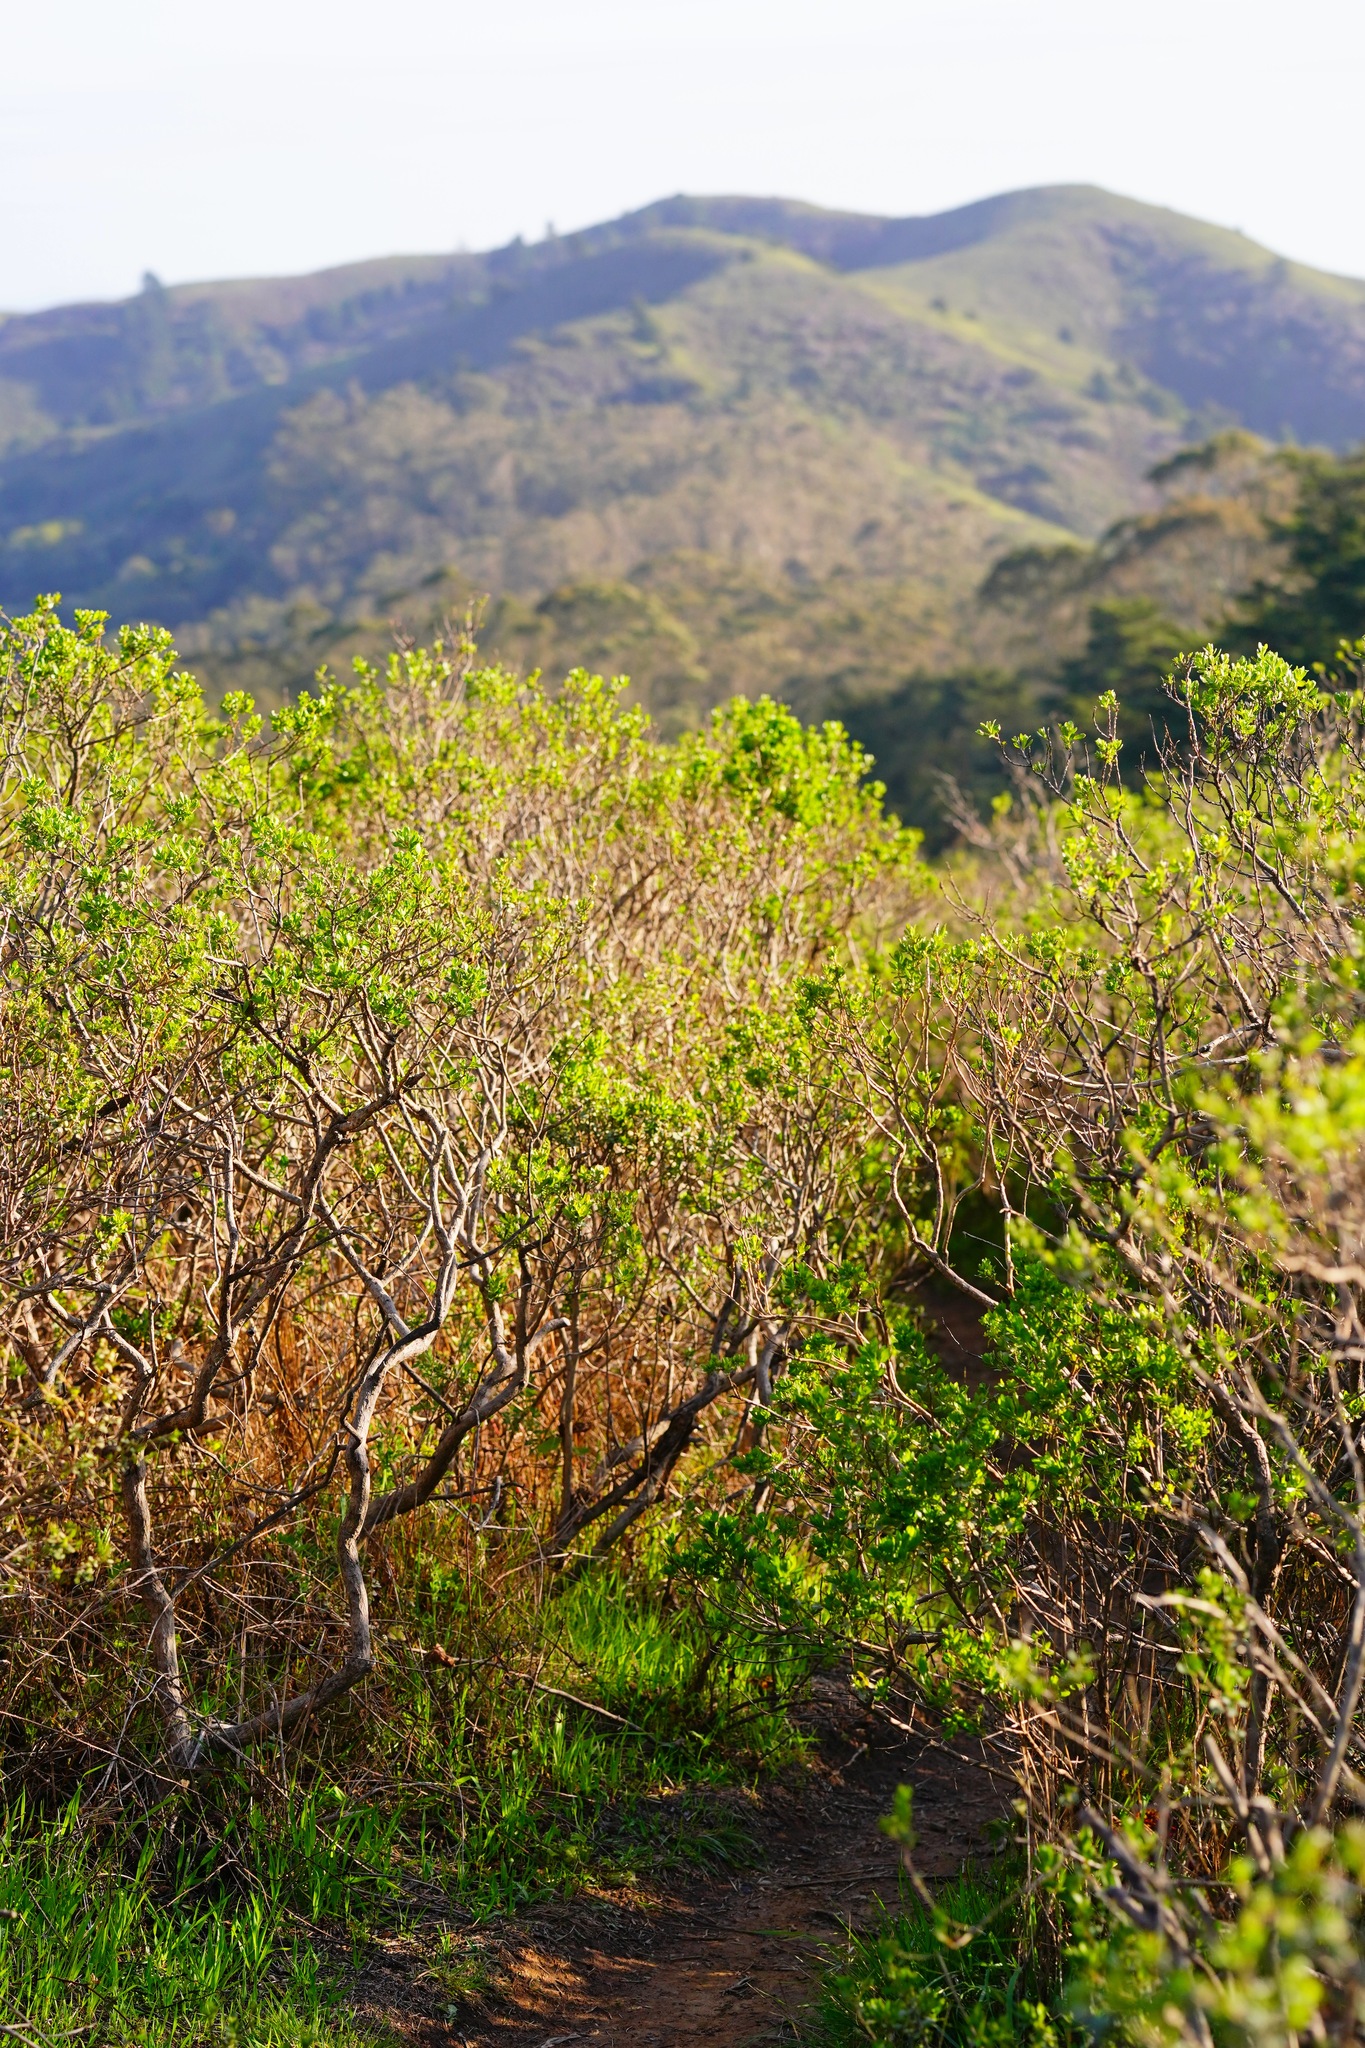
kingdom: Plantae
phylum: Tracheophyta
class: Magnoliopsida
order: Asterales
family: Asteraceae
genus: Baccharis
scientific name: Baccharis pilularis
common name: Coyotebrush
